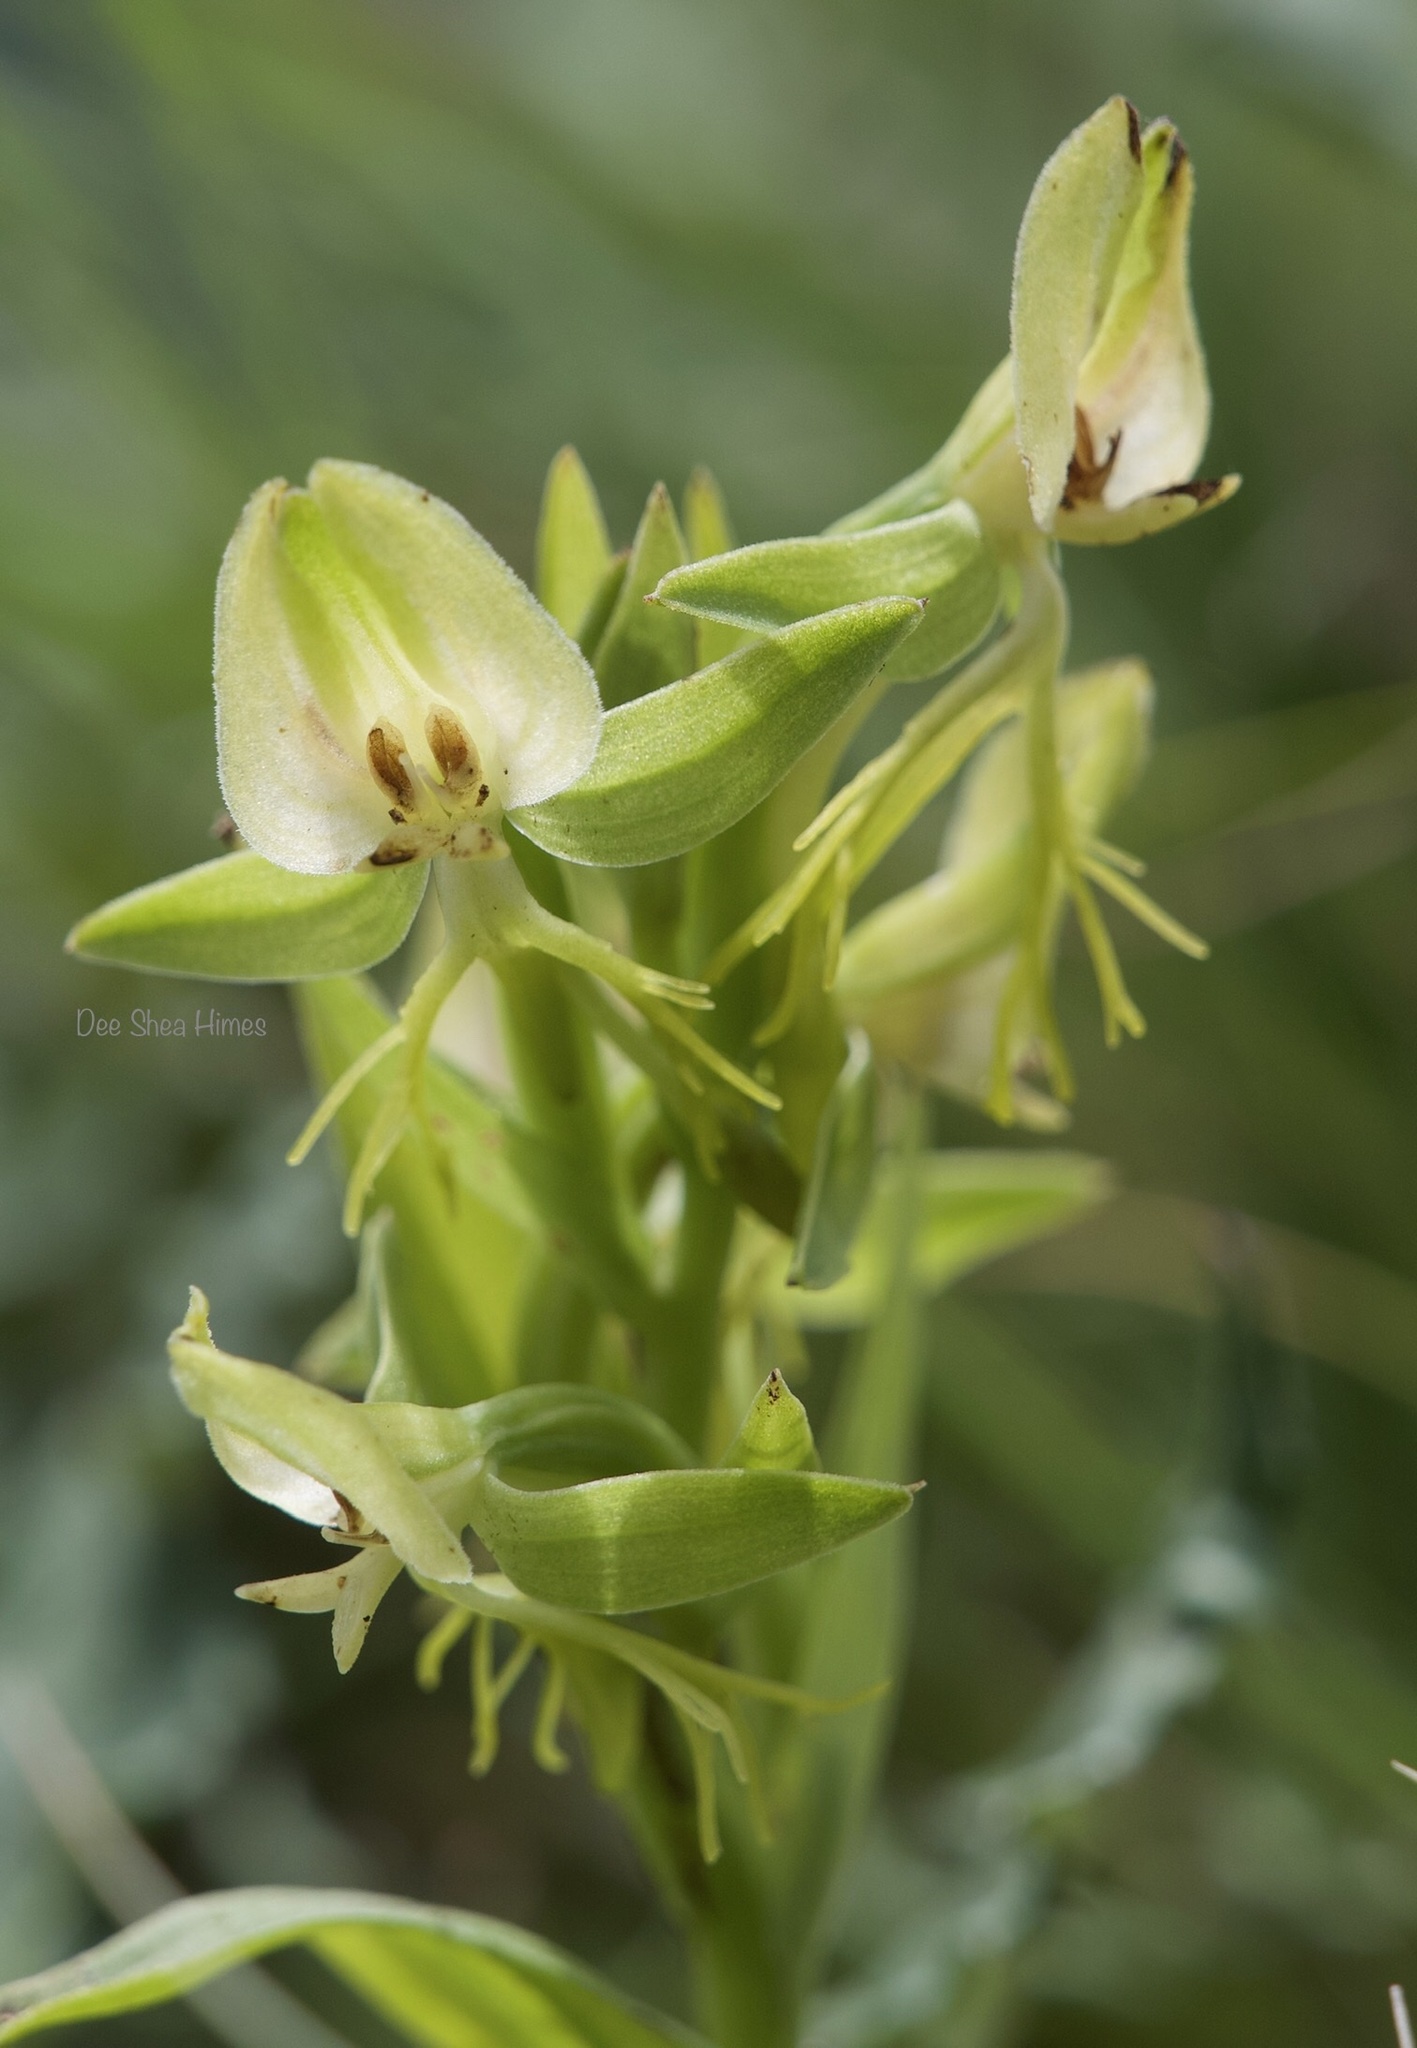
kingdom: Plantae
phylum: Tracheophyta
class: Liliopsida
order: Asparagales
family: Orchidaceae
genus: Habenaria
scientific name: Habenaria intermedia
